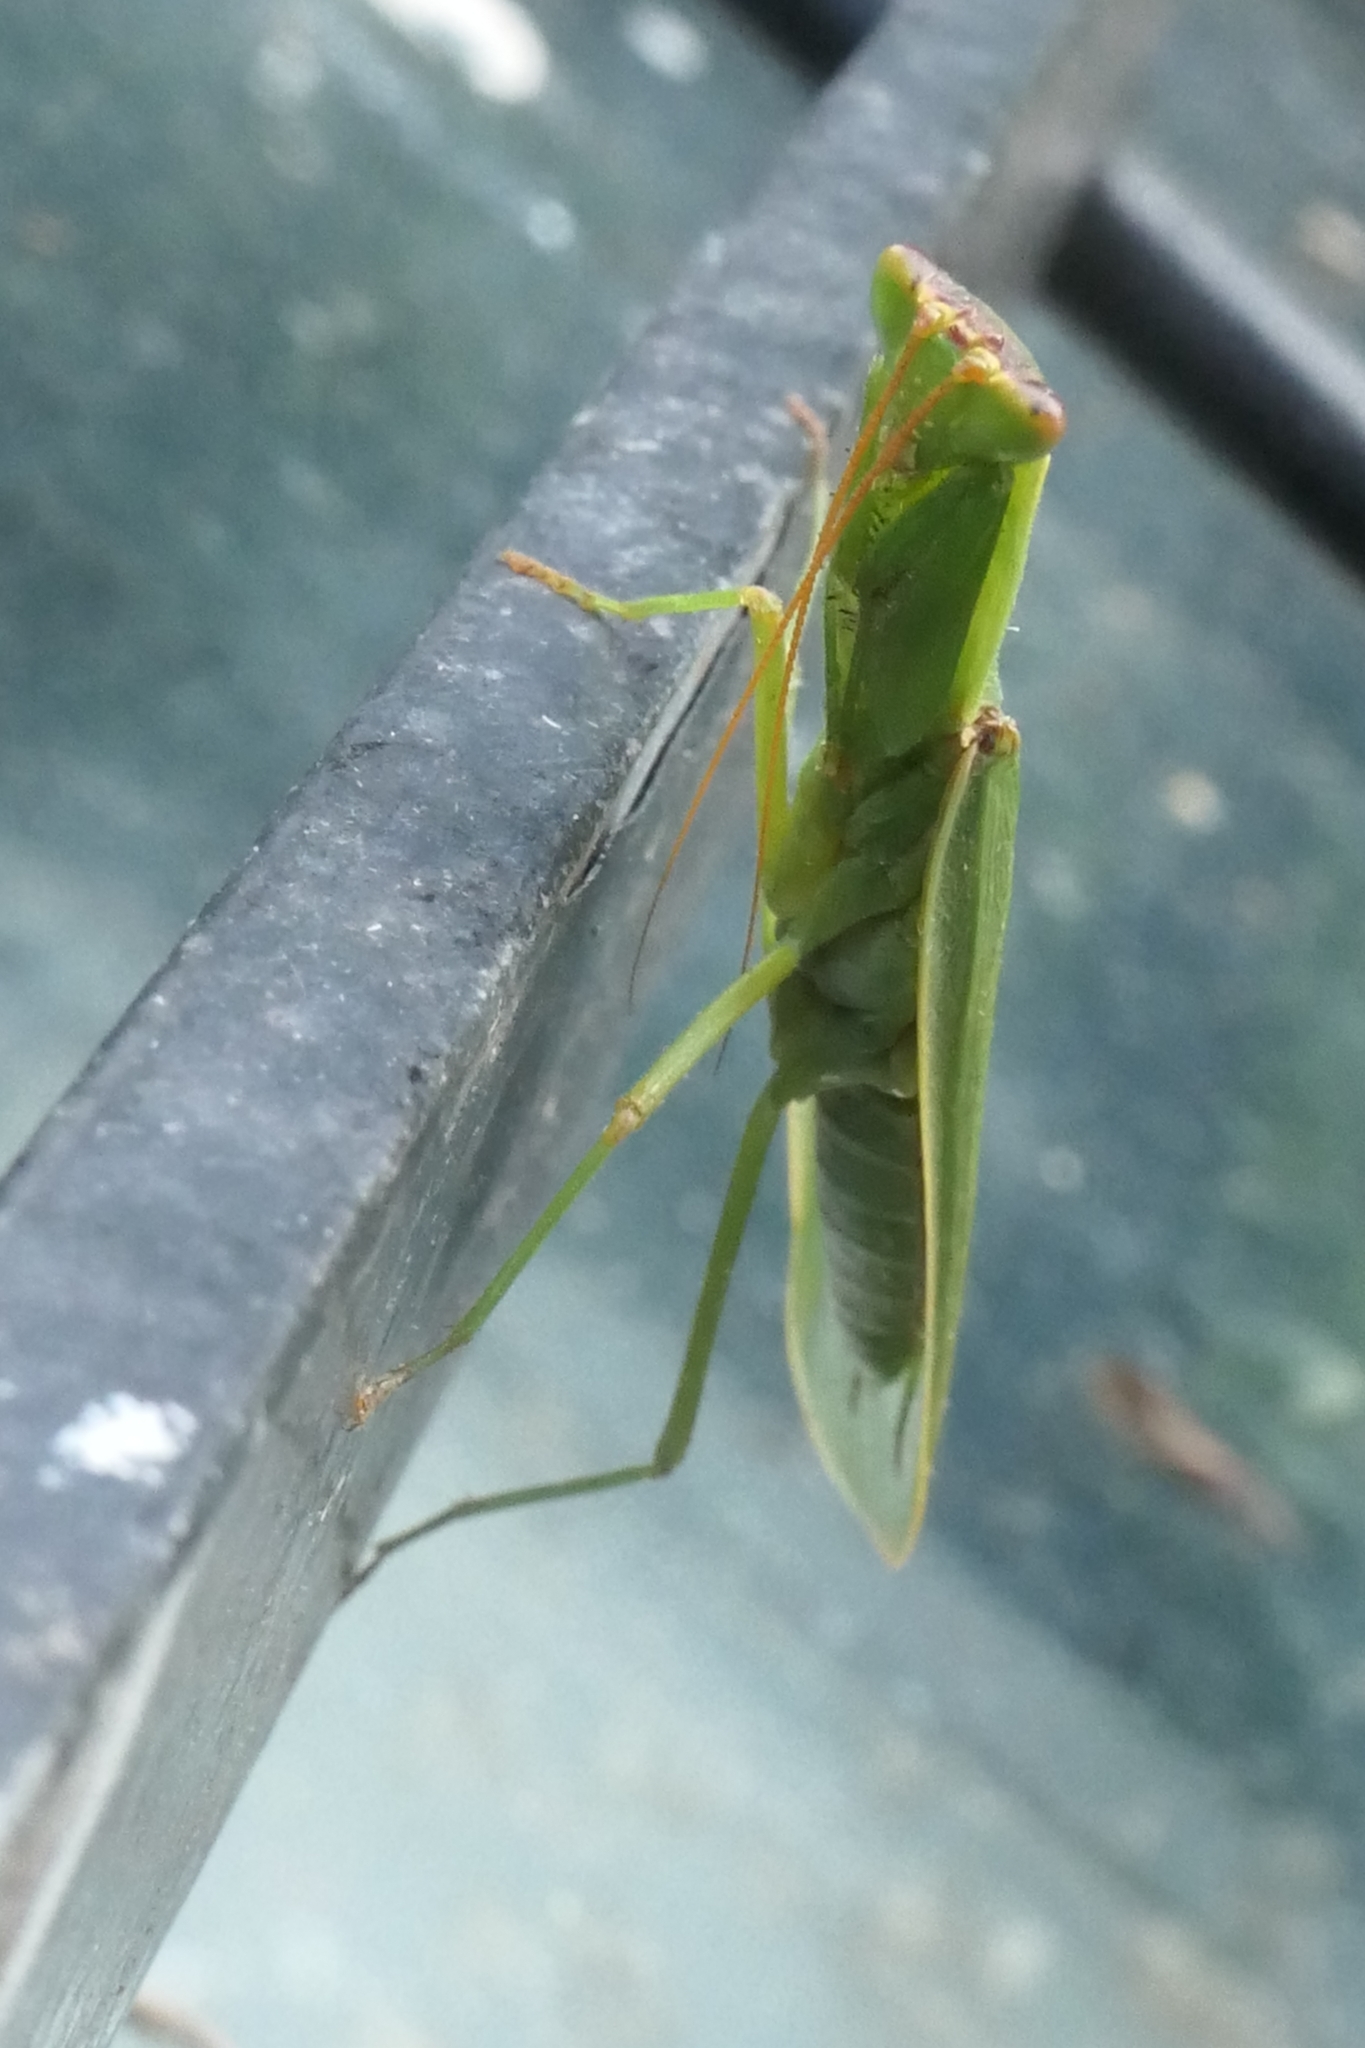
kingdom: Animalia
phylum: Arthropoda
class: Insecta
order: Mantodea
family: Mantidae
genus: Orthodera
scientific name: Orthodera novaezealandiae
